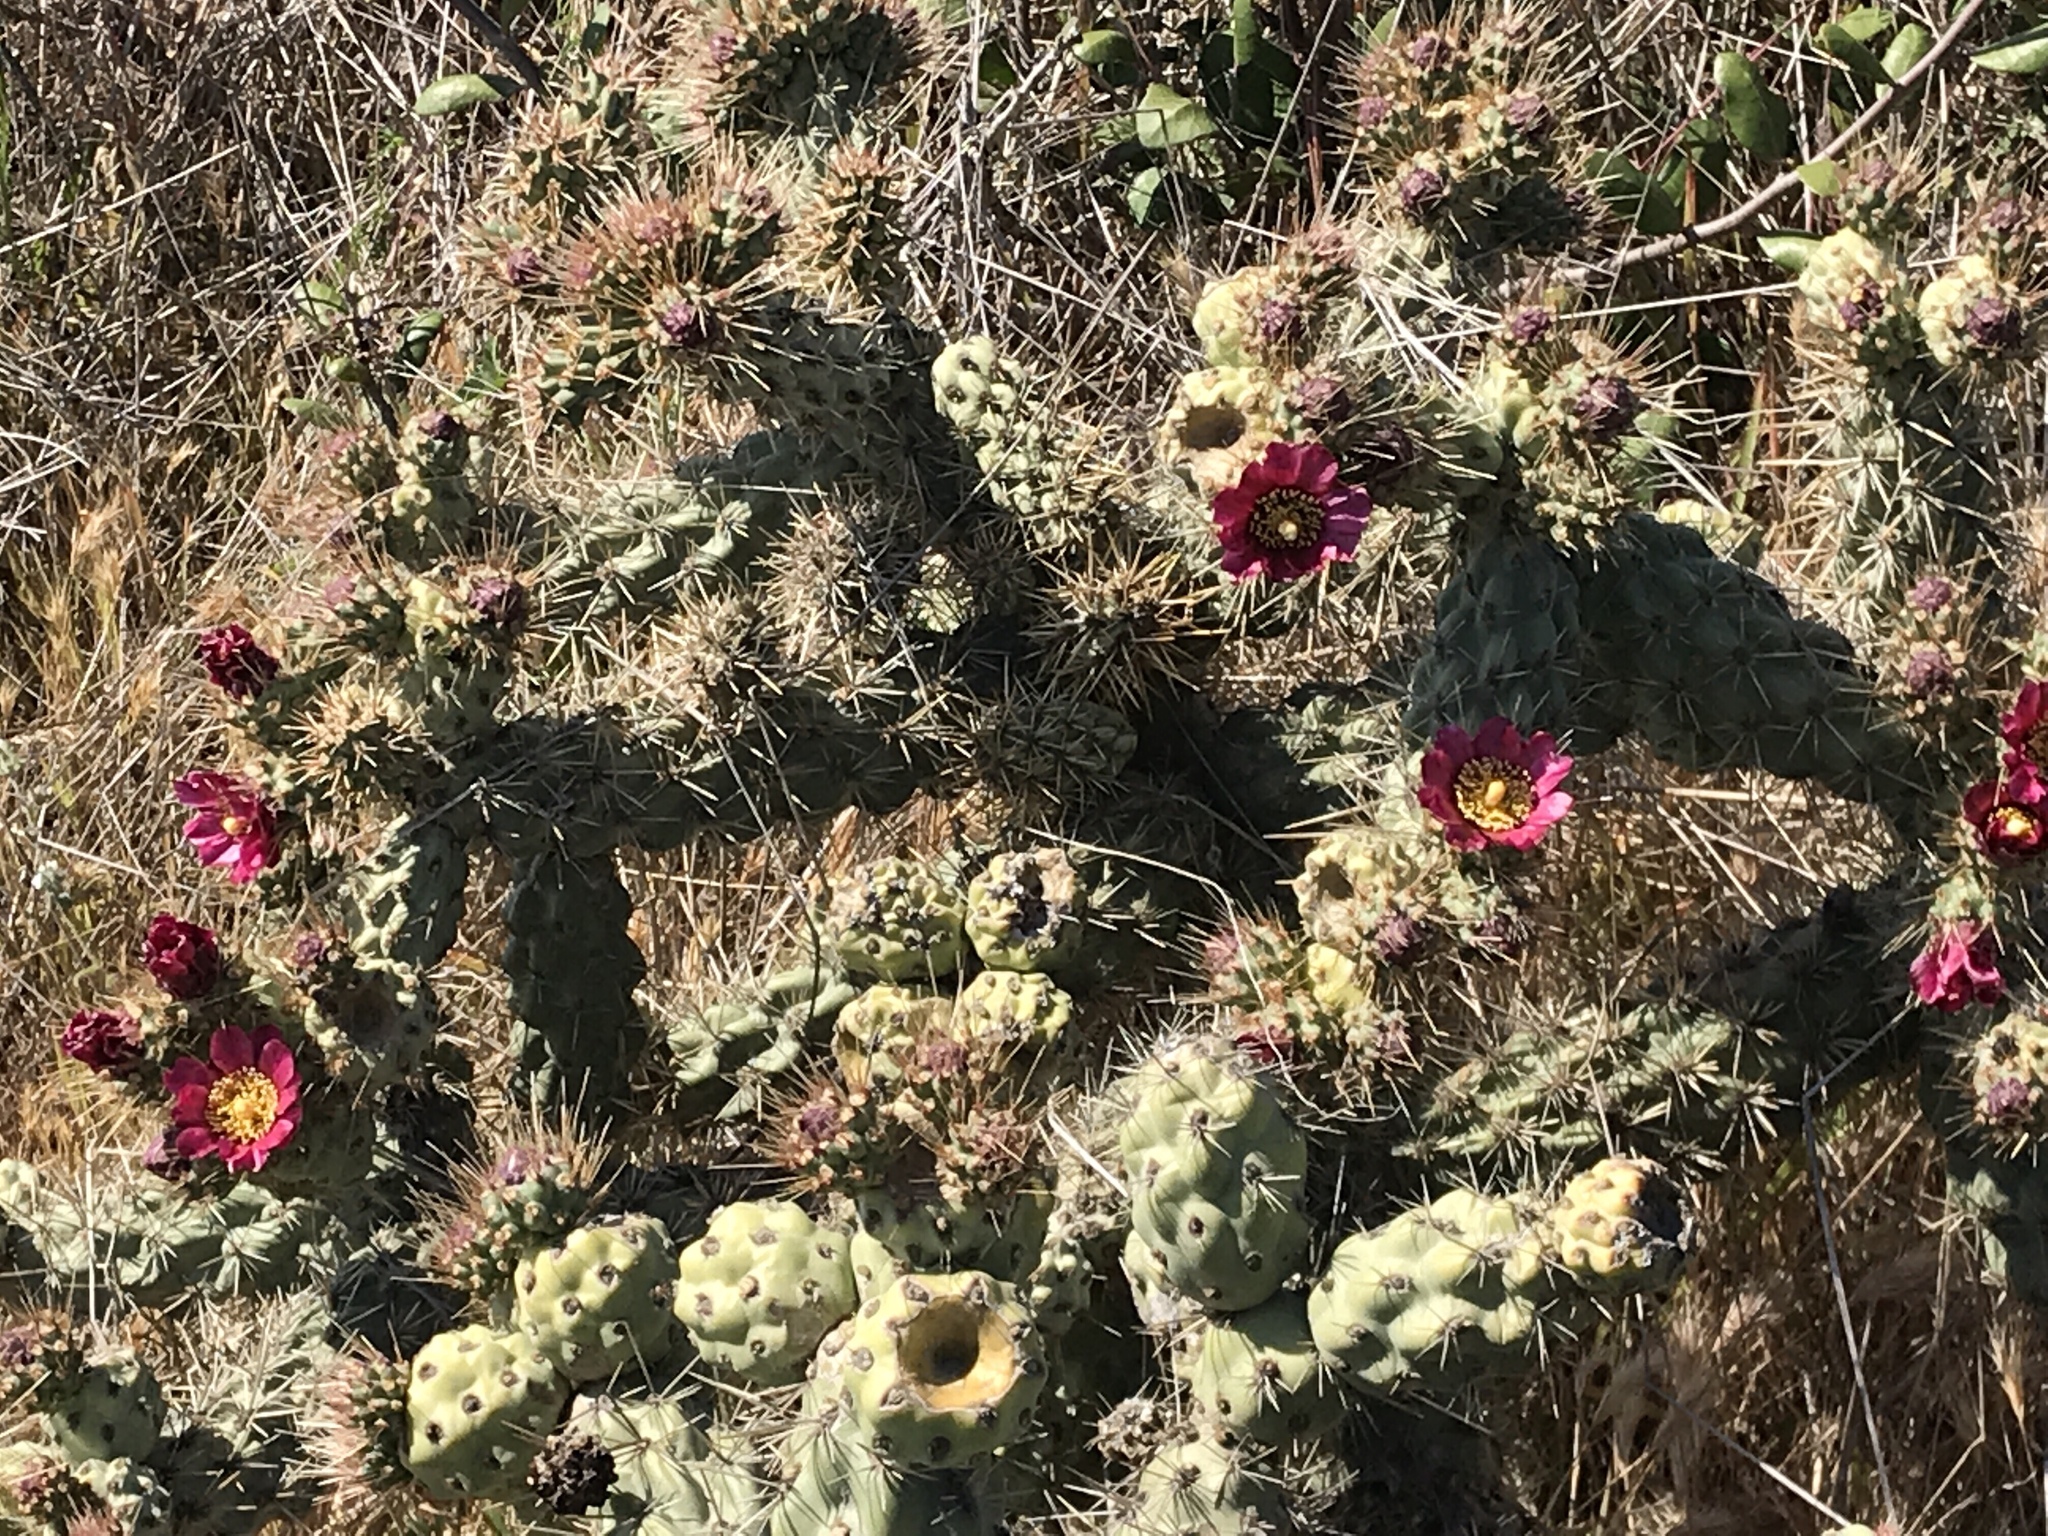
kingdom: Plantae
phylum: Tracheophyta
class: Magnoliopsida
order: Caryophyllales
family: Cactaceae
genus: Cylindropuntia
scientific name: Cylindropuntia prolifera
